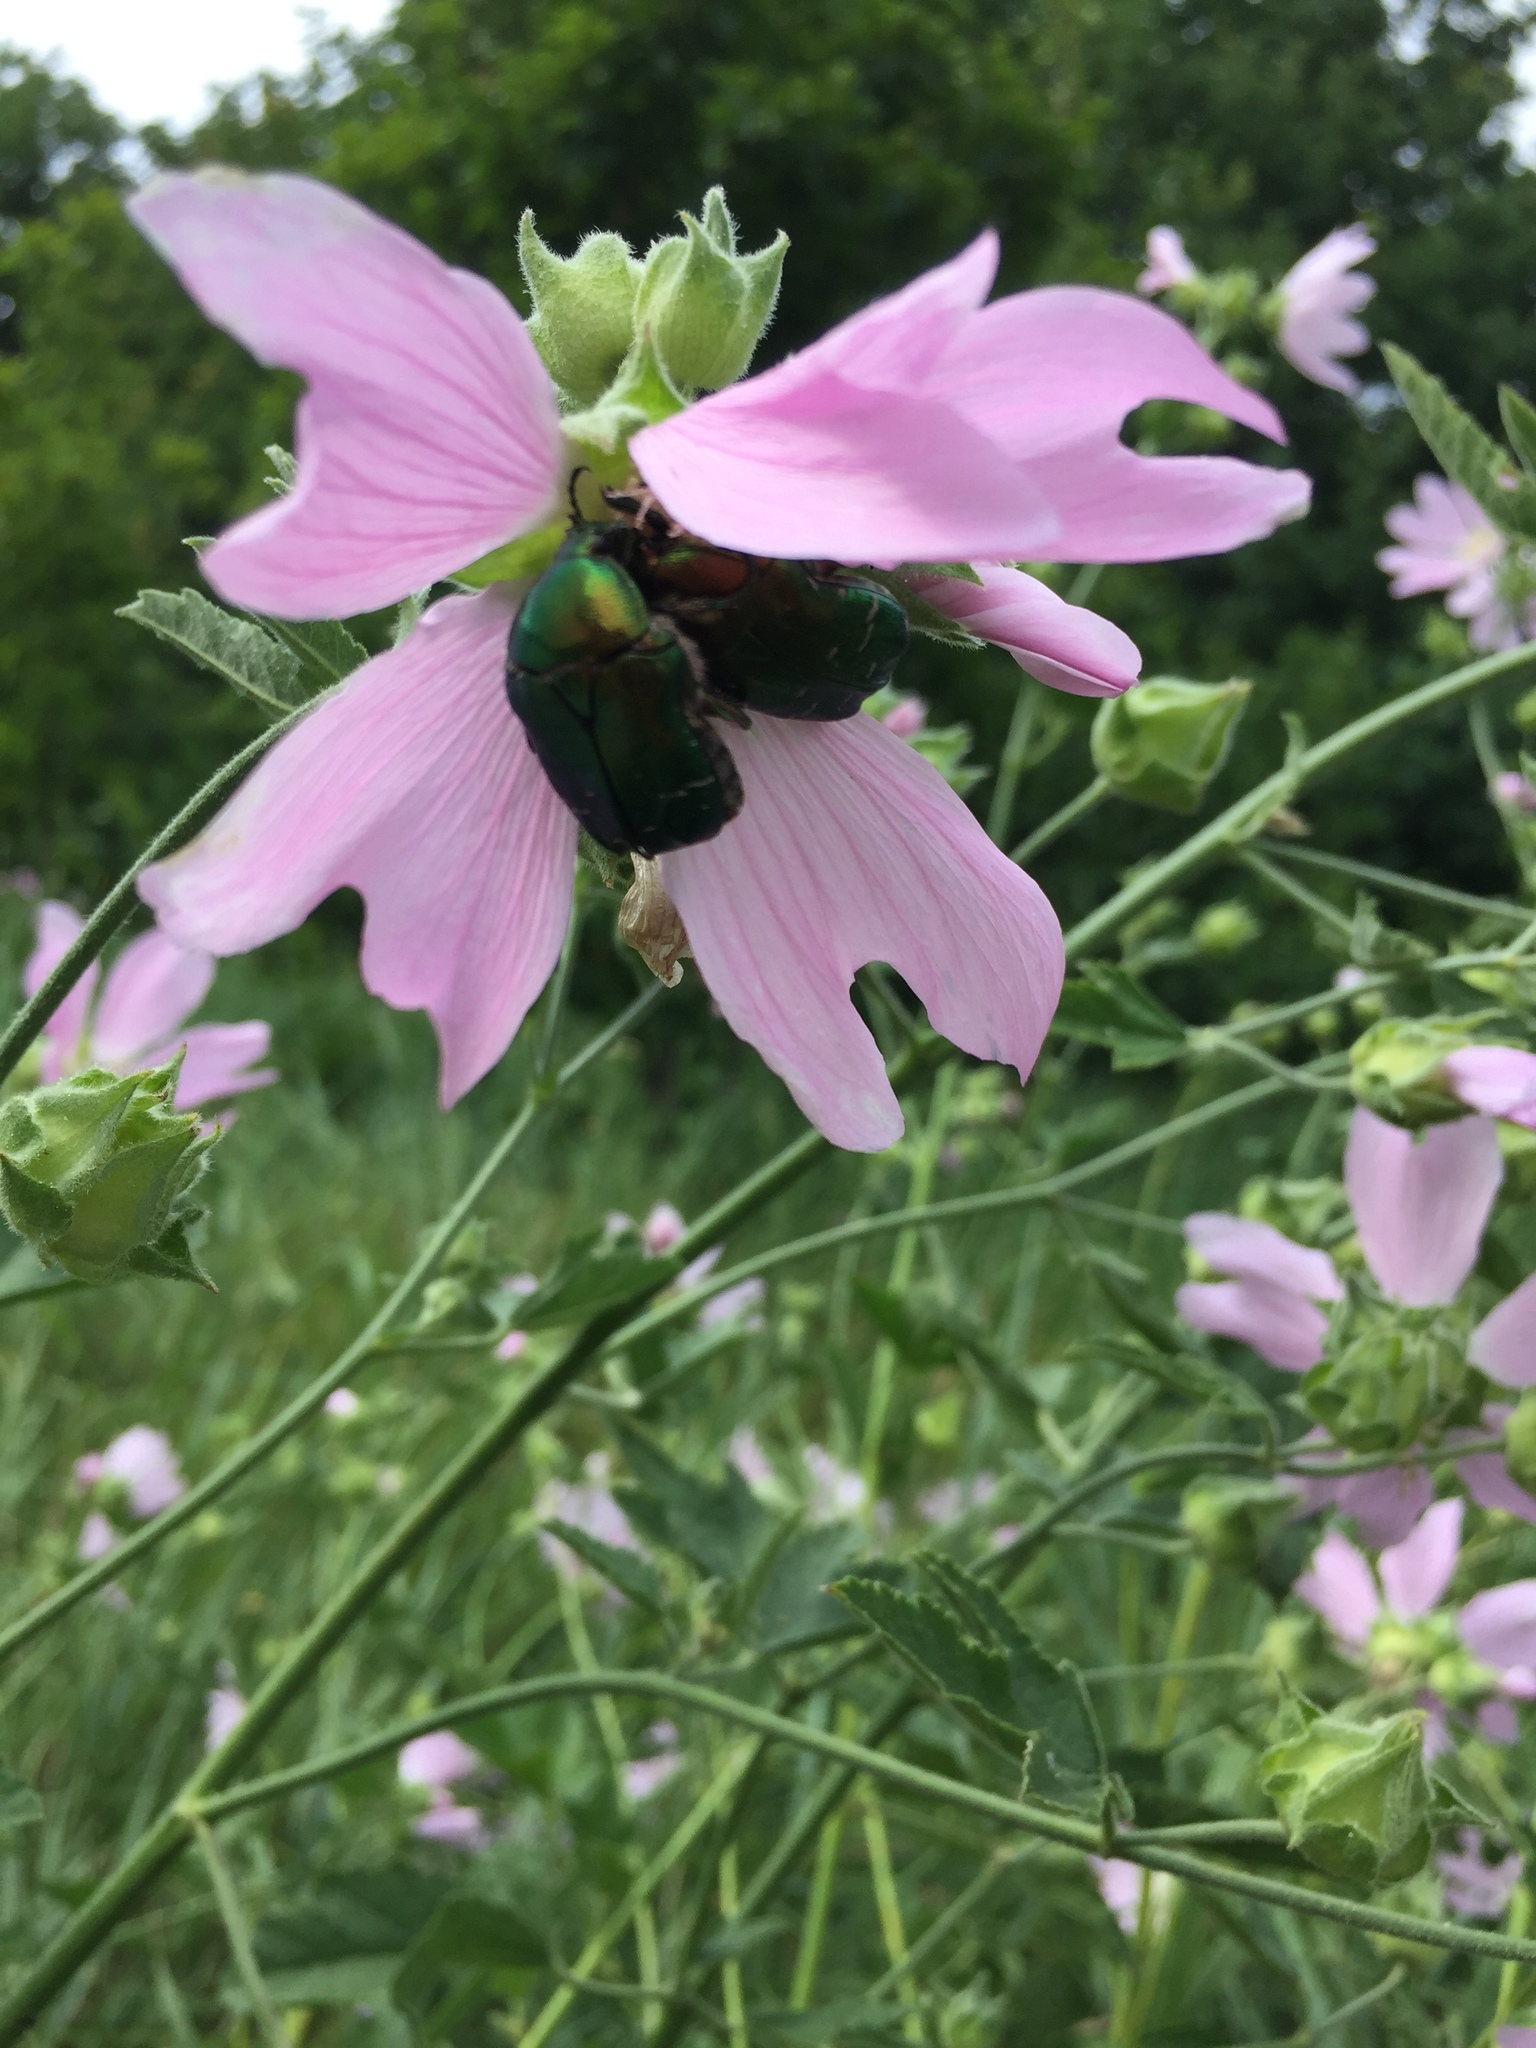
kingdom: Animalia
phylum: Arthropoda
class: Insecta
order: Coleoptera
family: Scarabaeidae
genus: Cetonia
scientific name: Cetonia aurata
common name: Rose chafer
